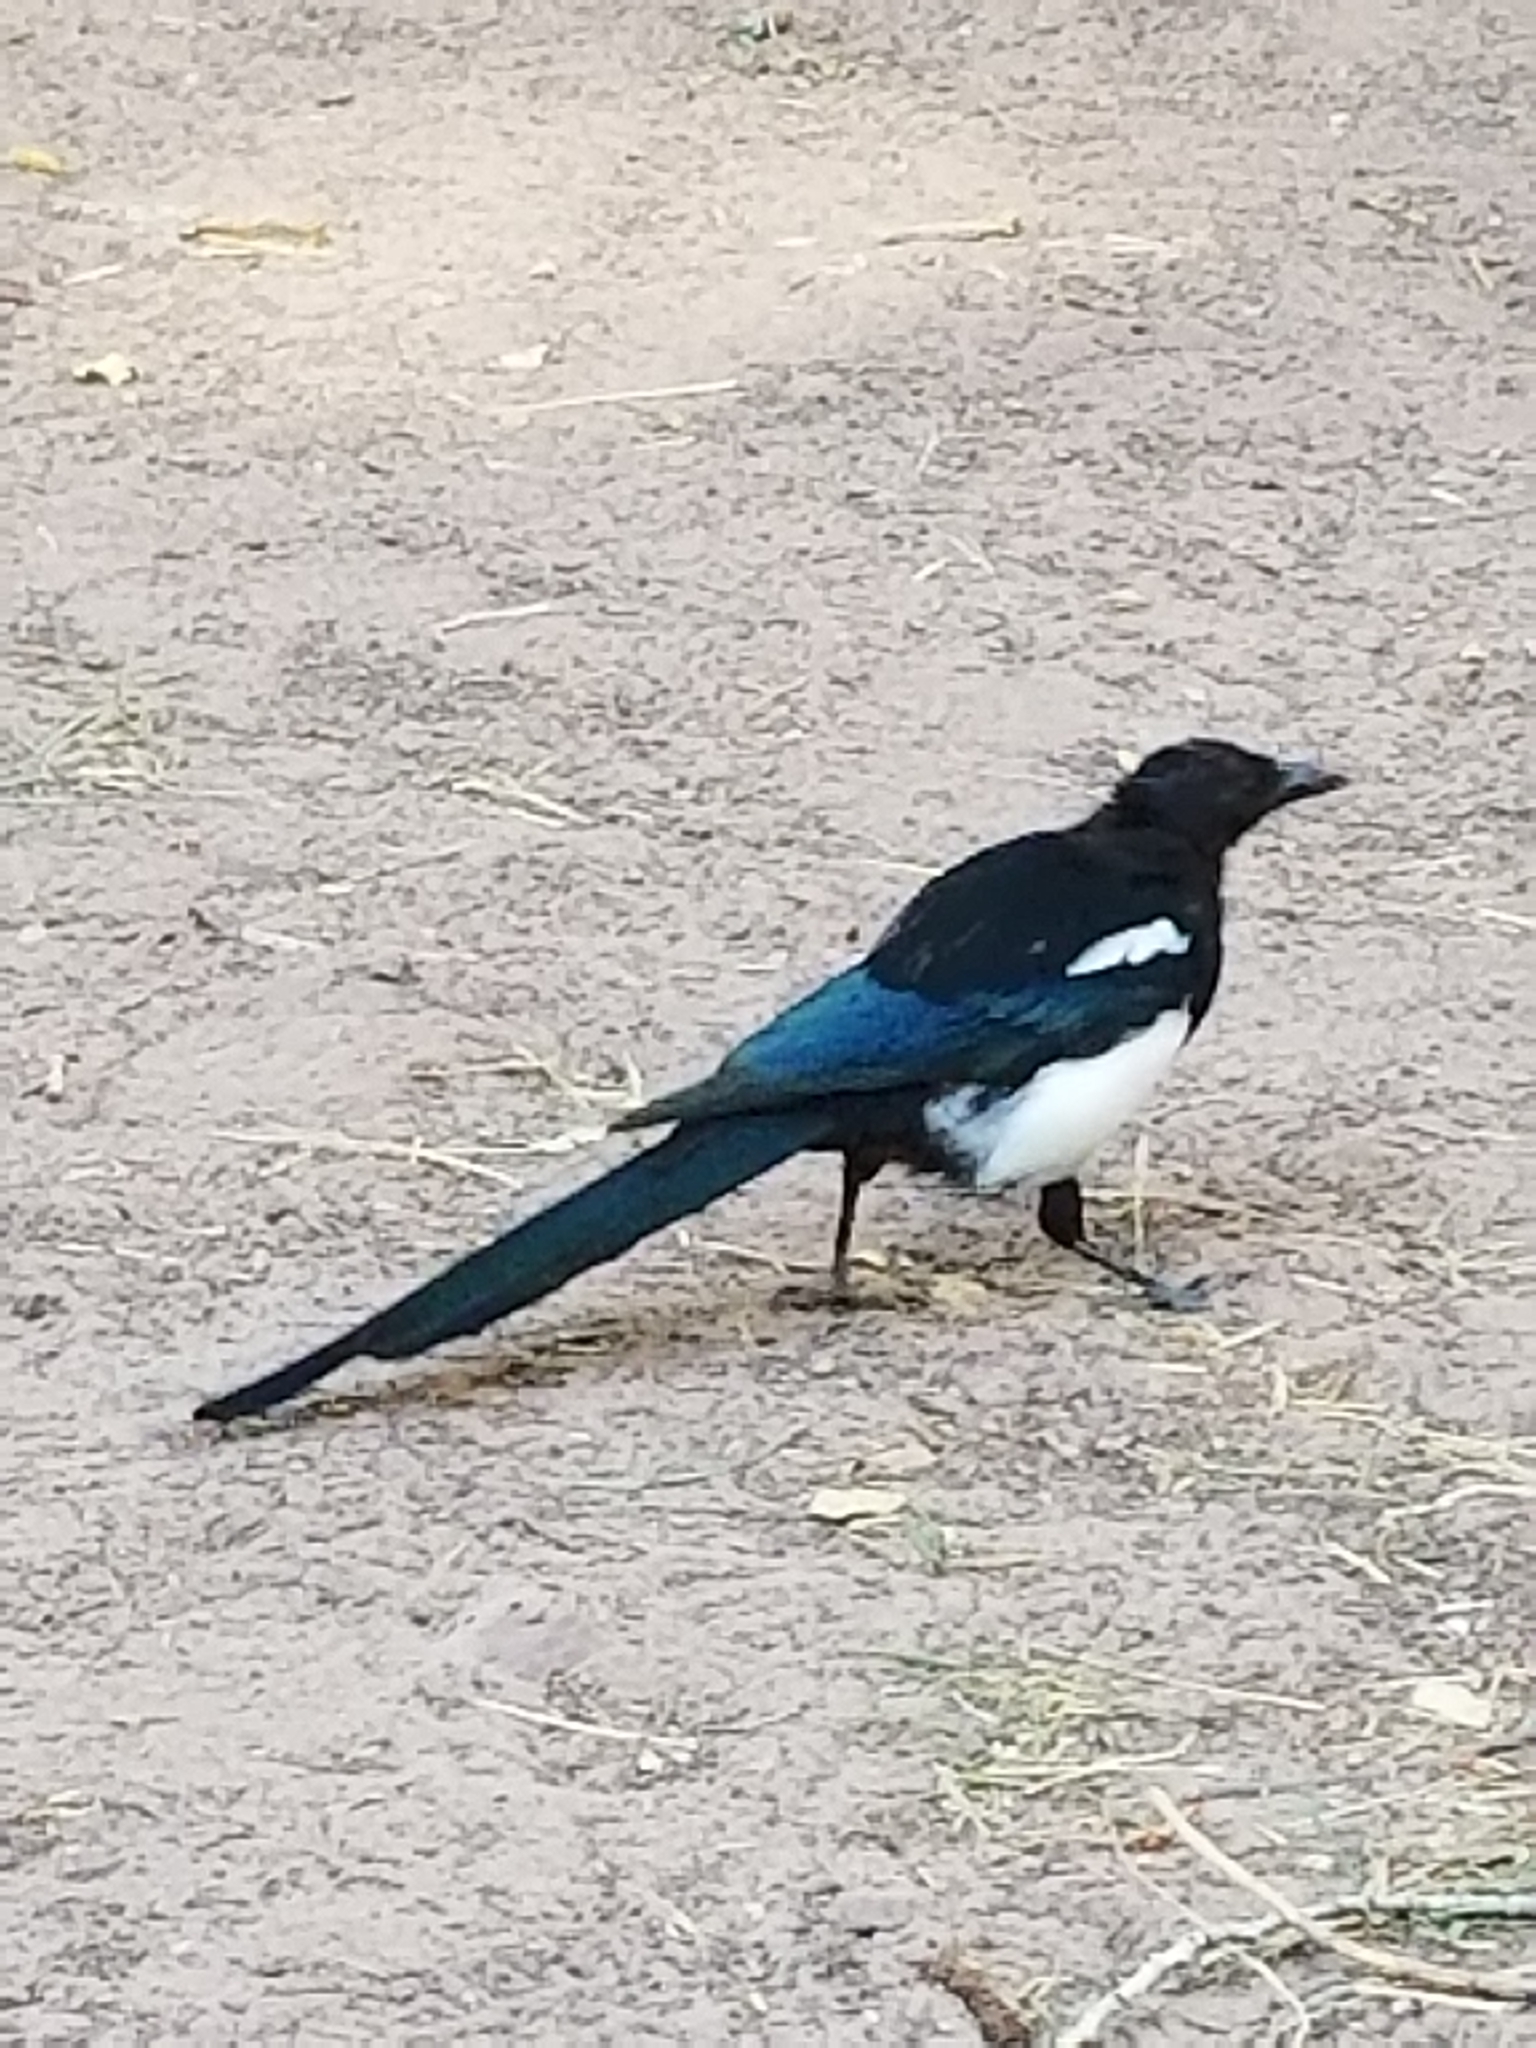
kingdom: Animalia
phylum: Chordata
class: Aves
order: Passeriformes
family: Corvidae
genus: Pica
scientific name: Pica hudsonia
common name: Black-billed magpie
